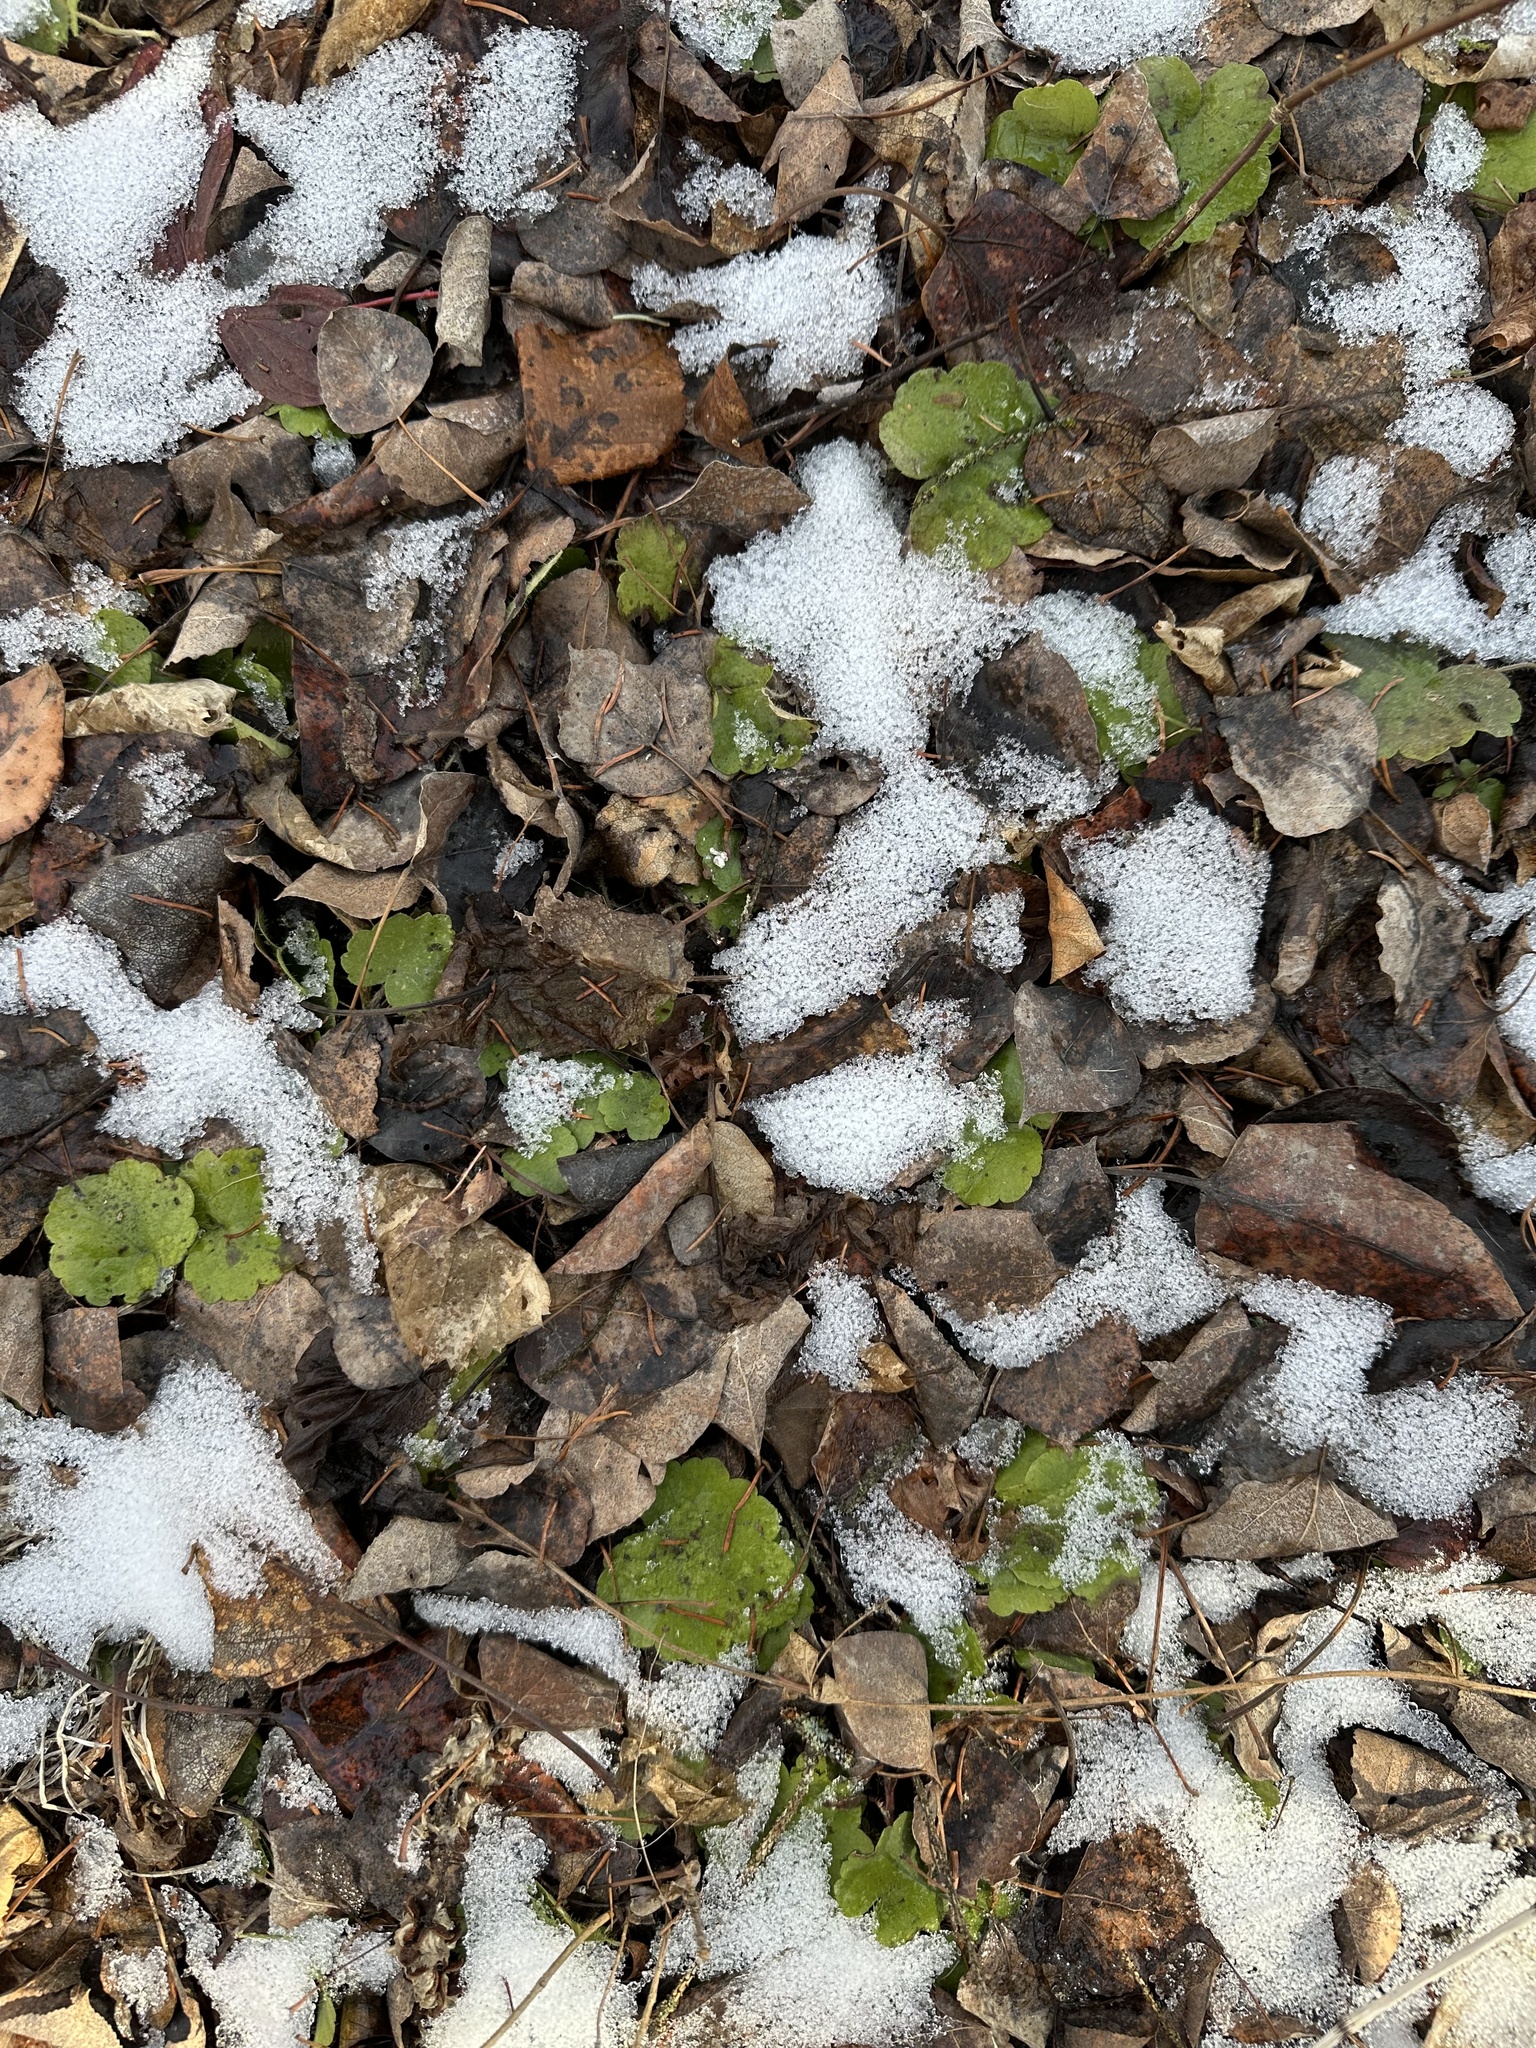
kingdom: Plantae
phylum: Tracheophyta
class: Magnoliopsida
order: Saxifragales
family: Saxifragaceae
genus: Mitella
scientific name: Mitella nuda
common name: Bare-stemmed bishop's-cap
